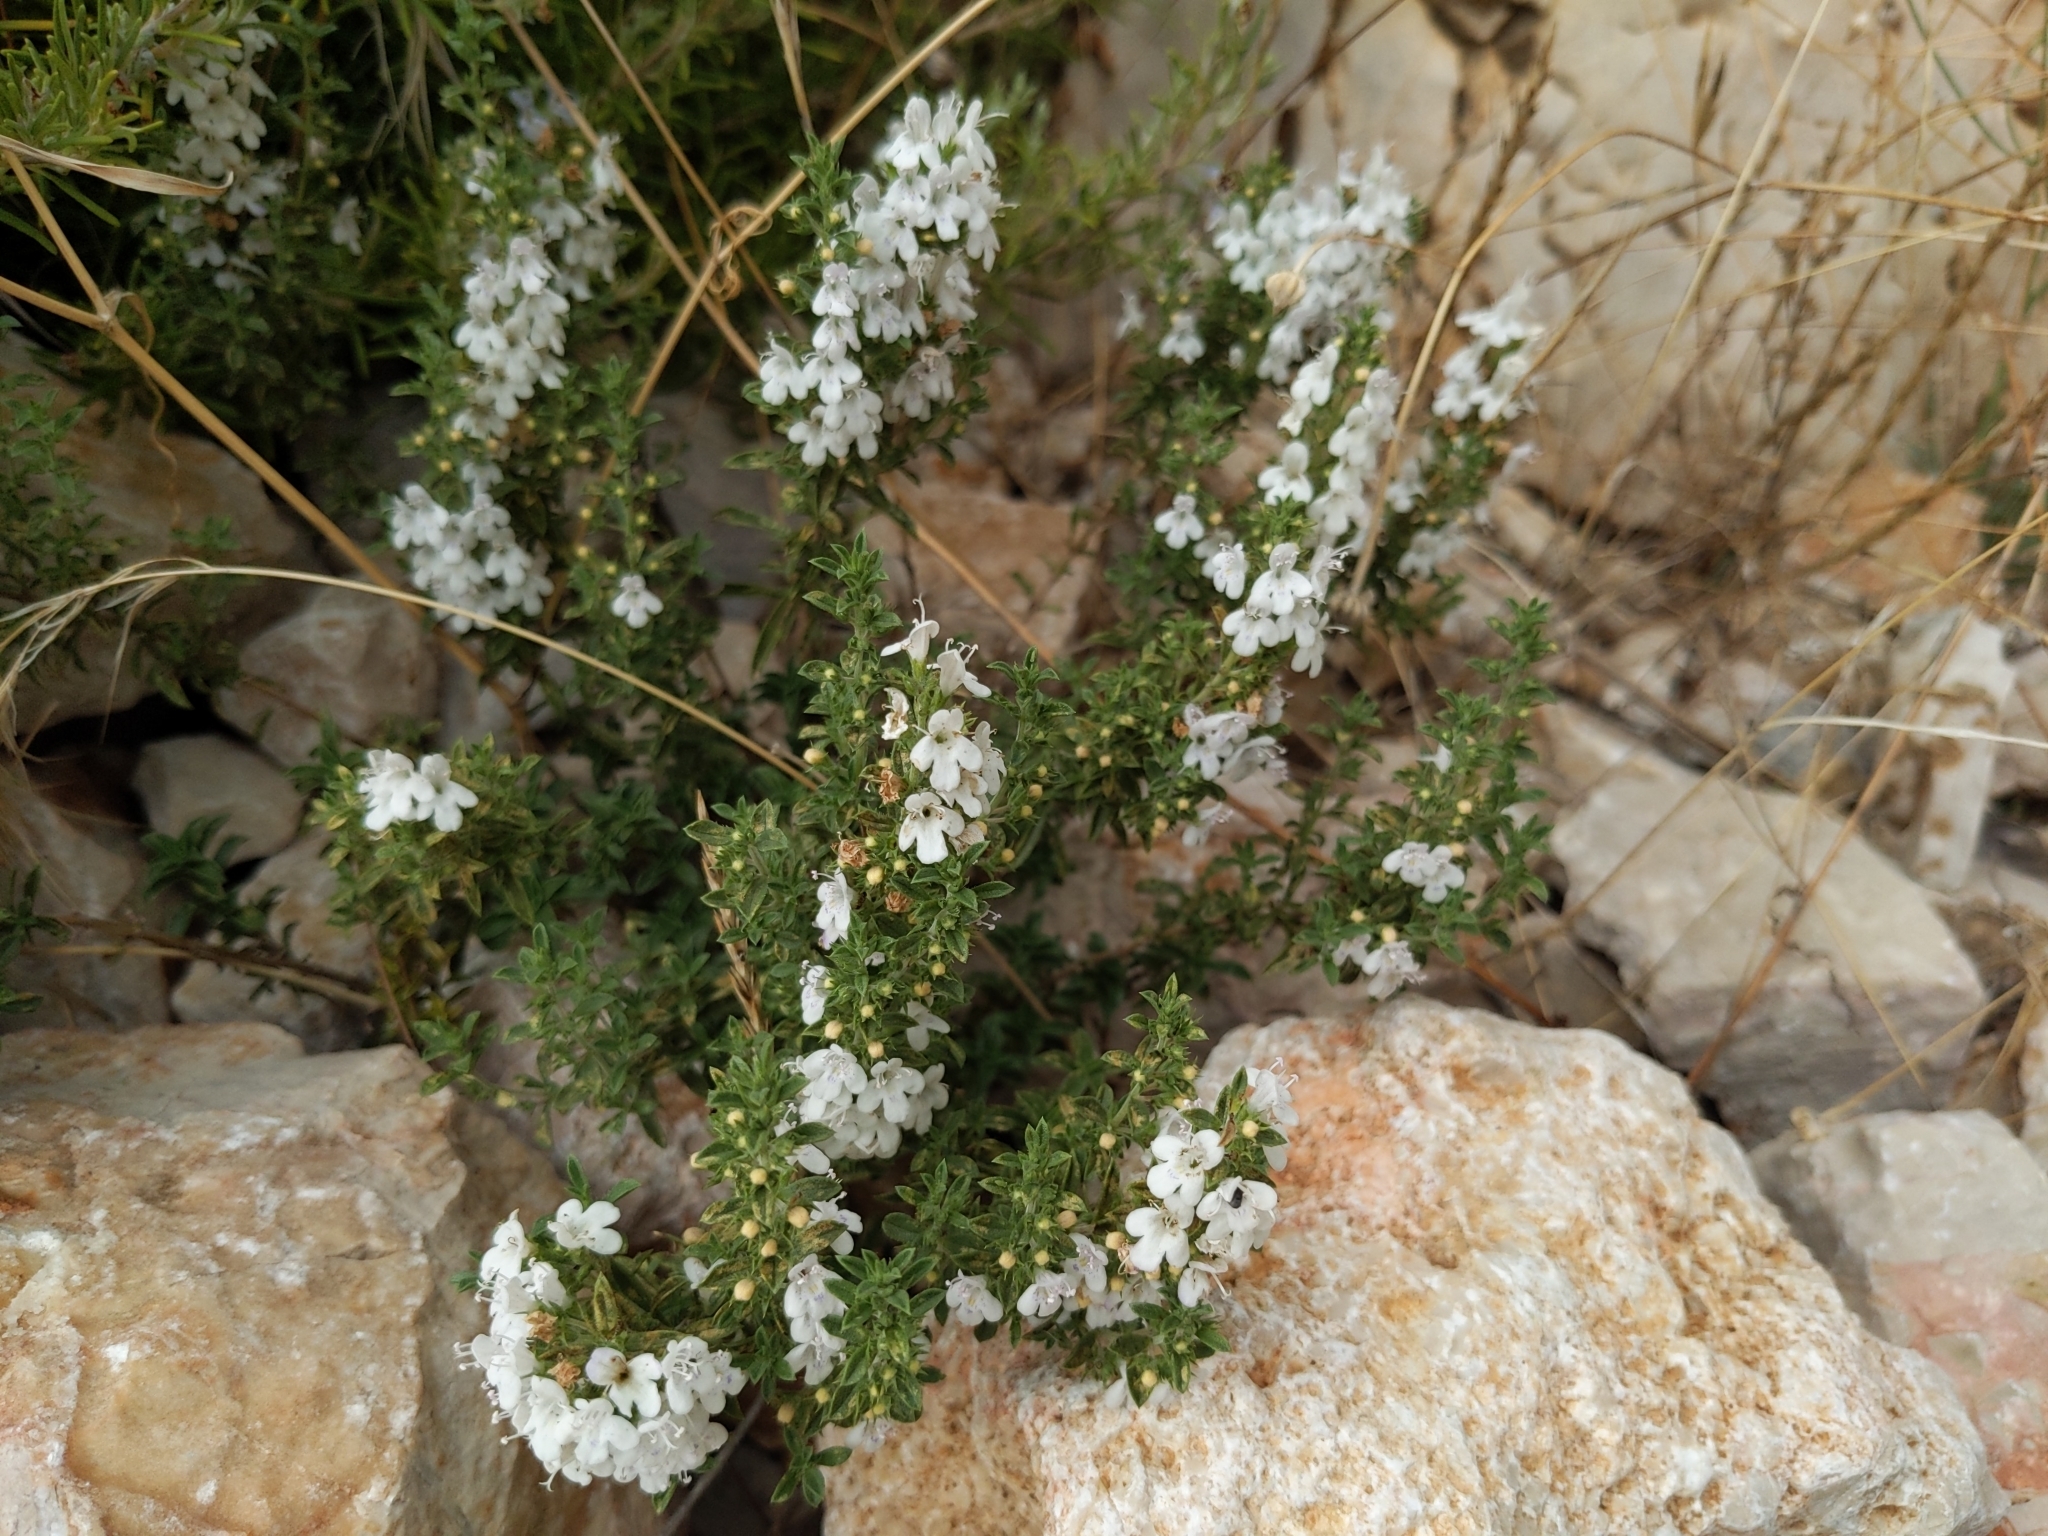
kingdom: Plantae
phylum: Tracheophyta
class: Magnoliopsida
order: Lamiales
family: Lamiaceae
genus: Satureja
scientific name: Satureja montana
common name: Winter savory
